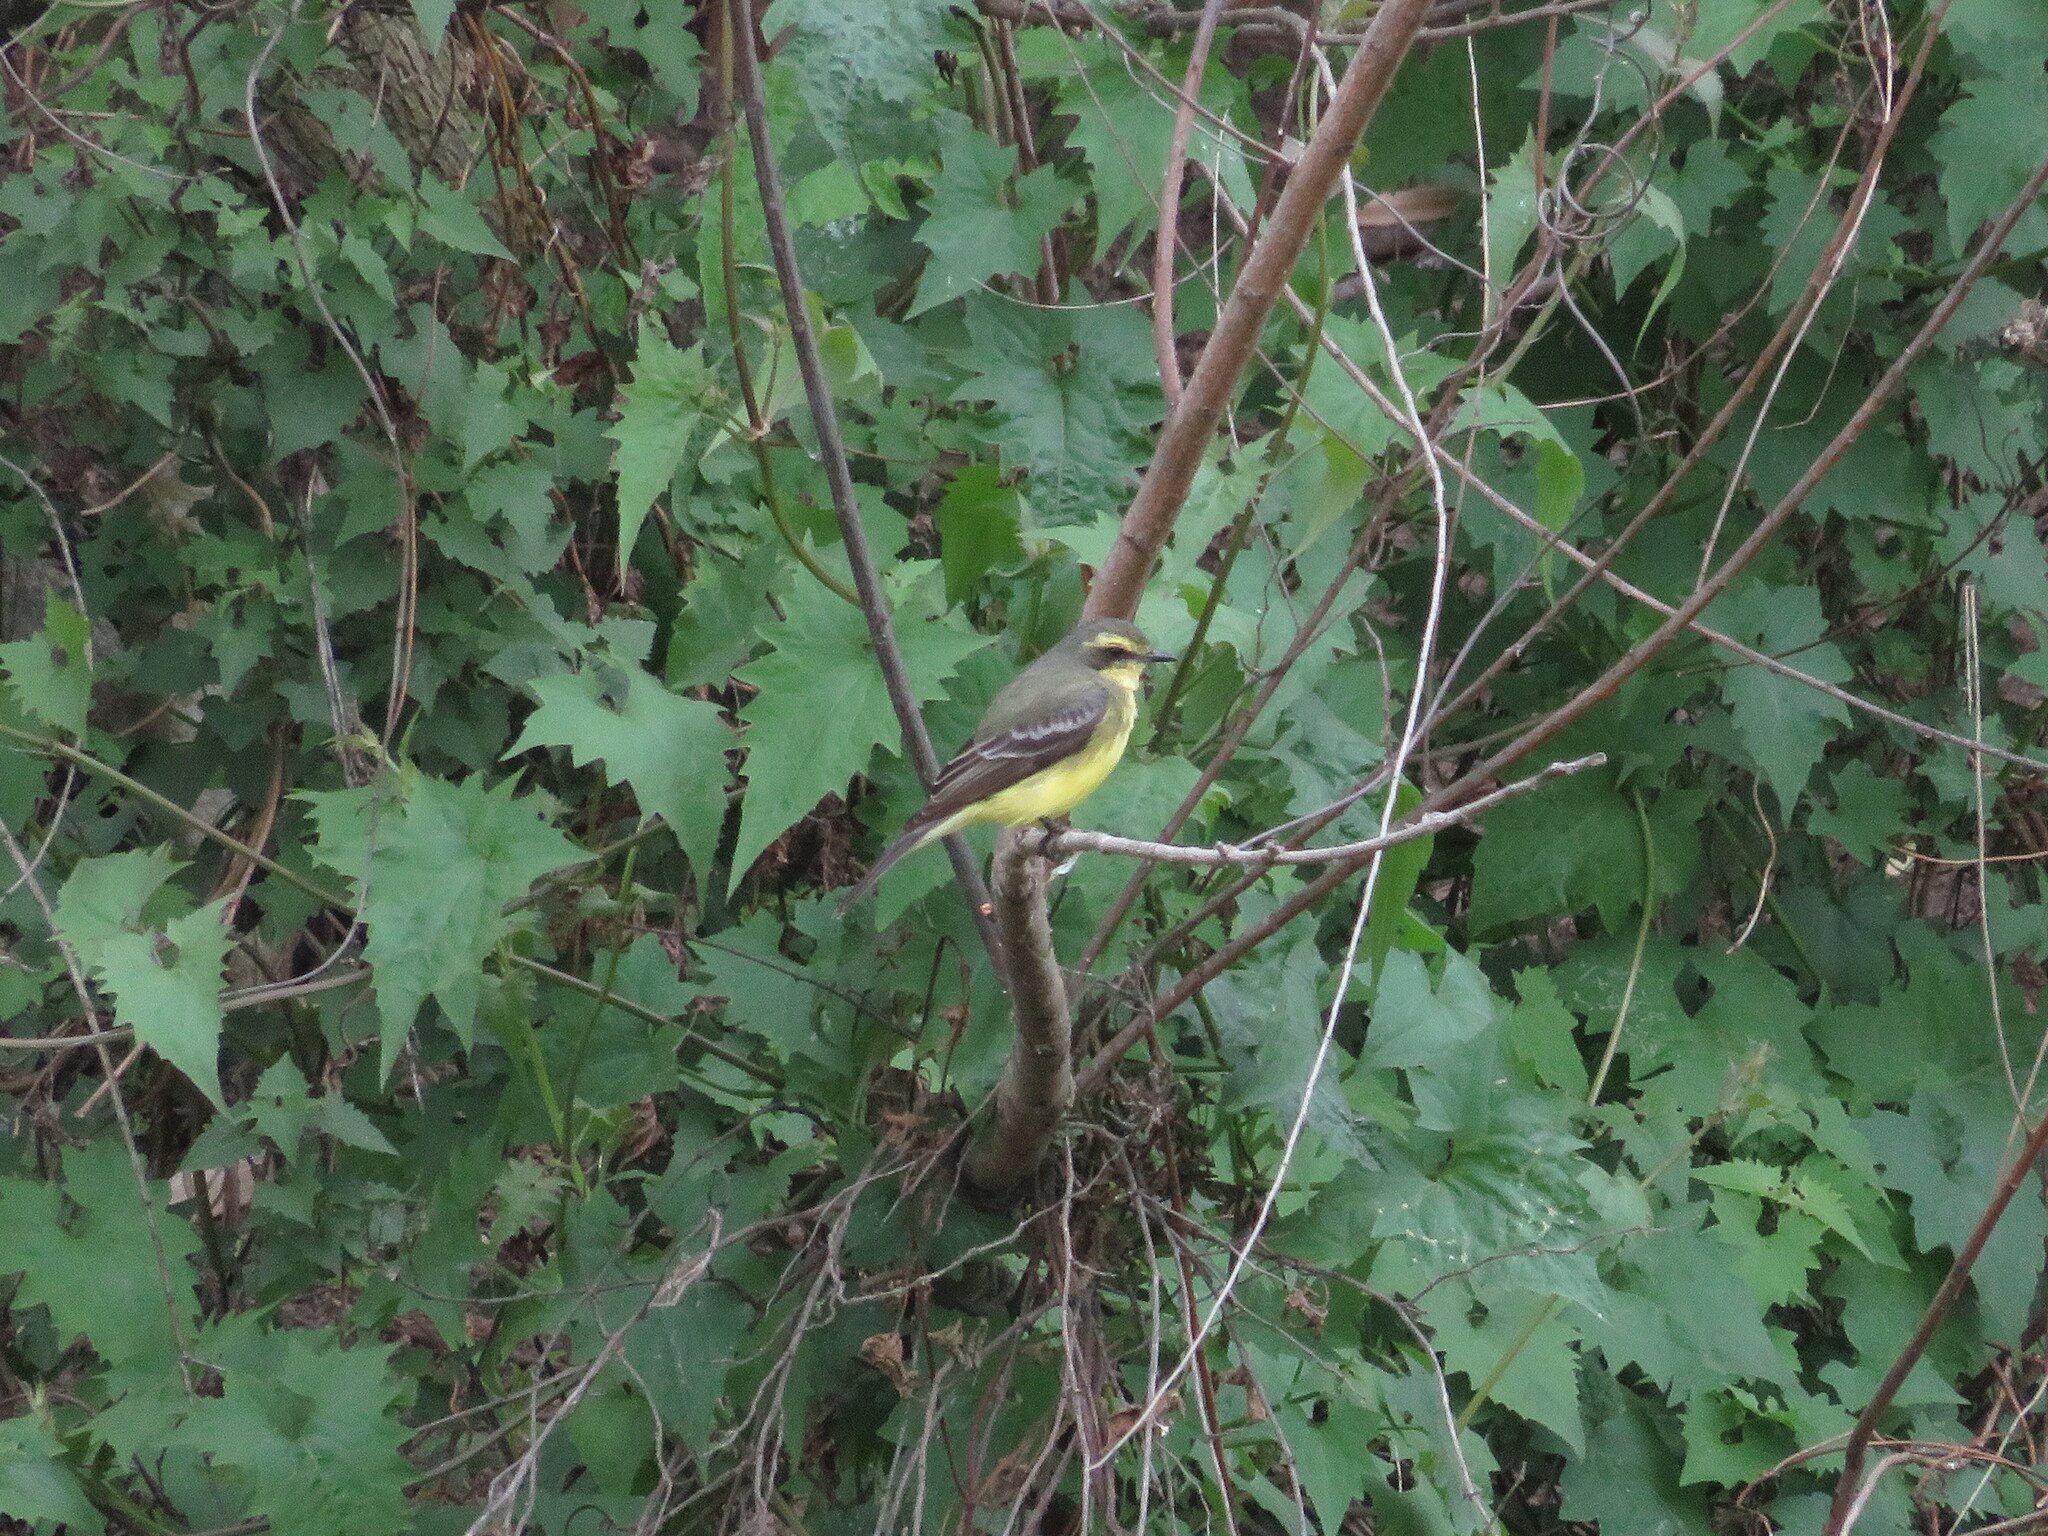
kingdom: Animalia
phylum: Chordata
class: Aves
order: Passeriformes
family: Tyrannidae
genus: Satrapa
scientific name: Satrapa icterophrys
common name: Yellow-browed tyrant
